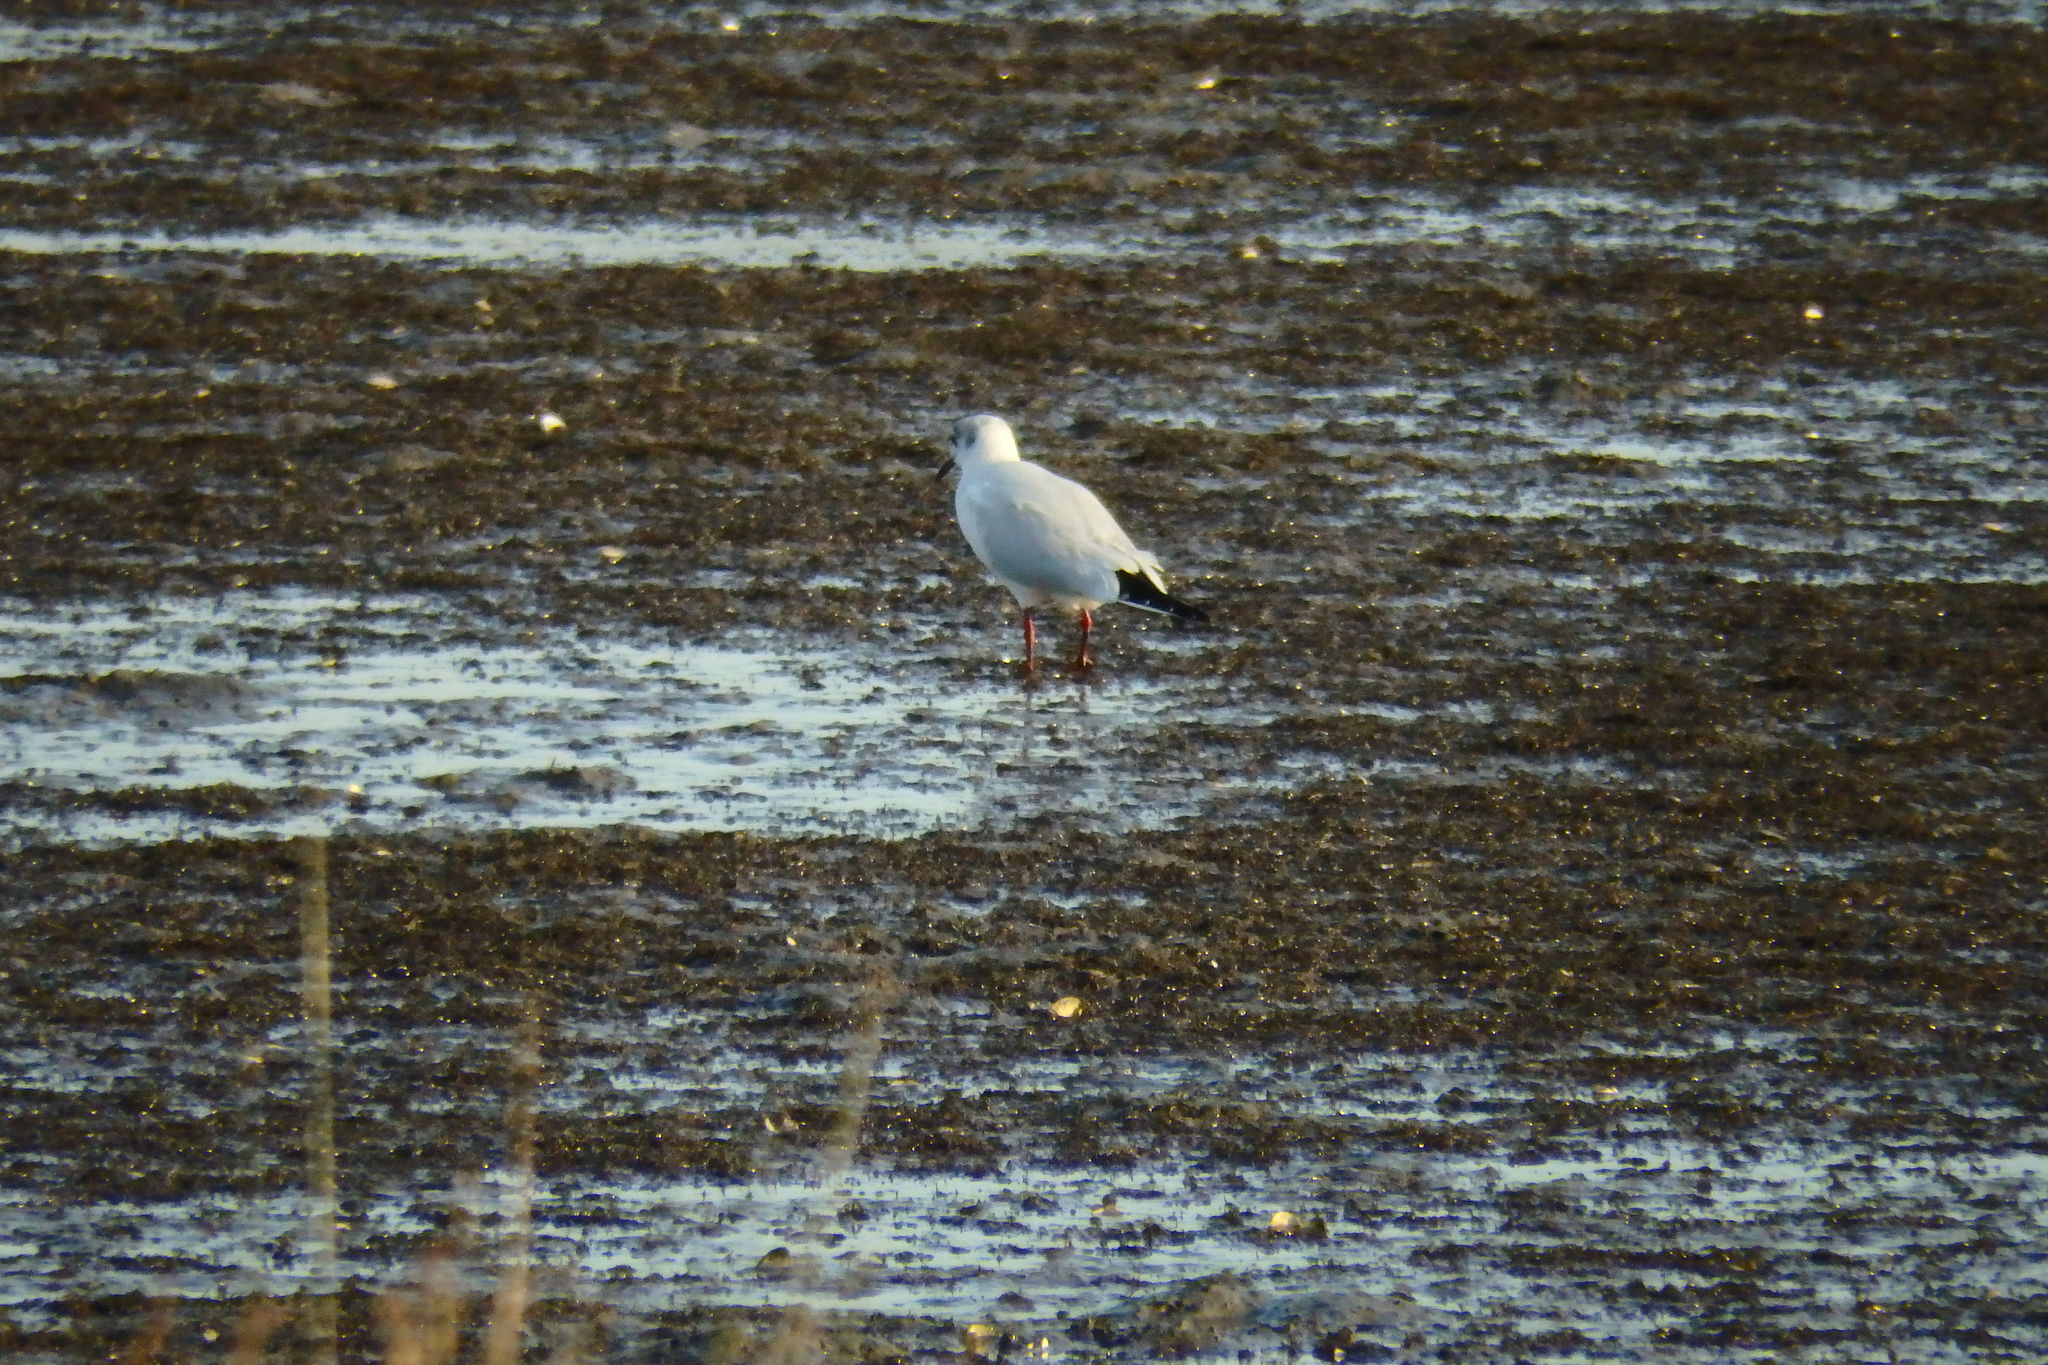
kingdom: Animalia
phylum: Chordata
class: Aves
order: Charadriiformes
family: Laridae
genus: Chroicocephalus
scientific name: Chroicocephalus ridibundus
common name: Black-headed gull
